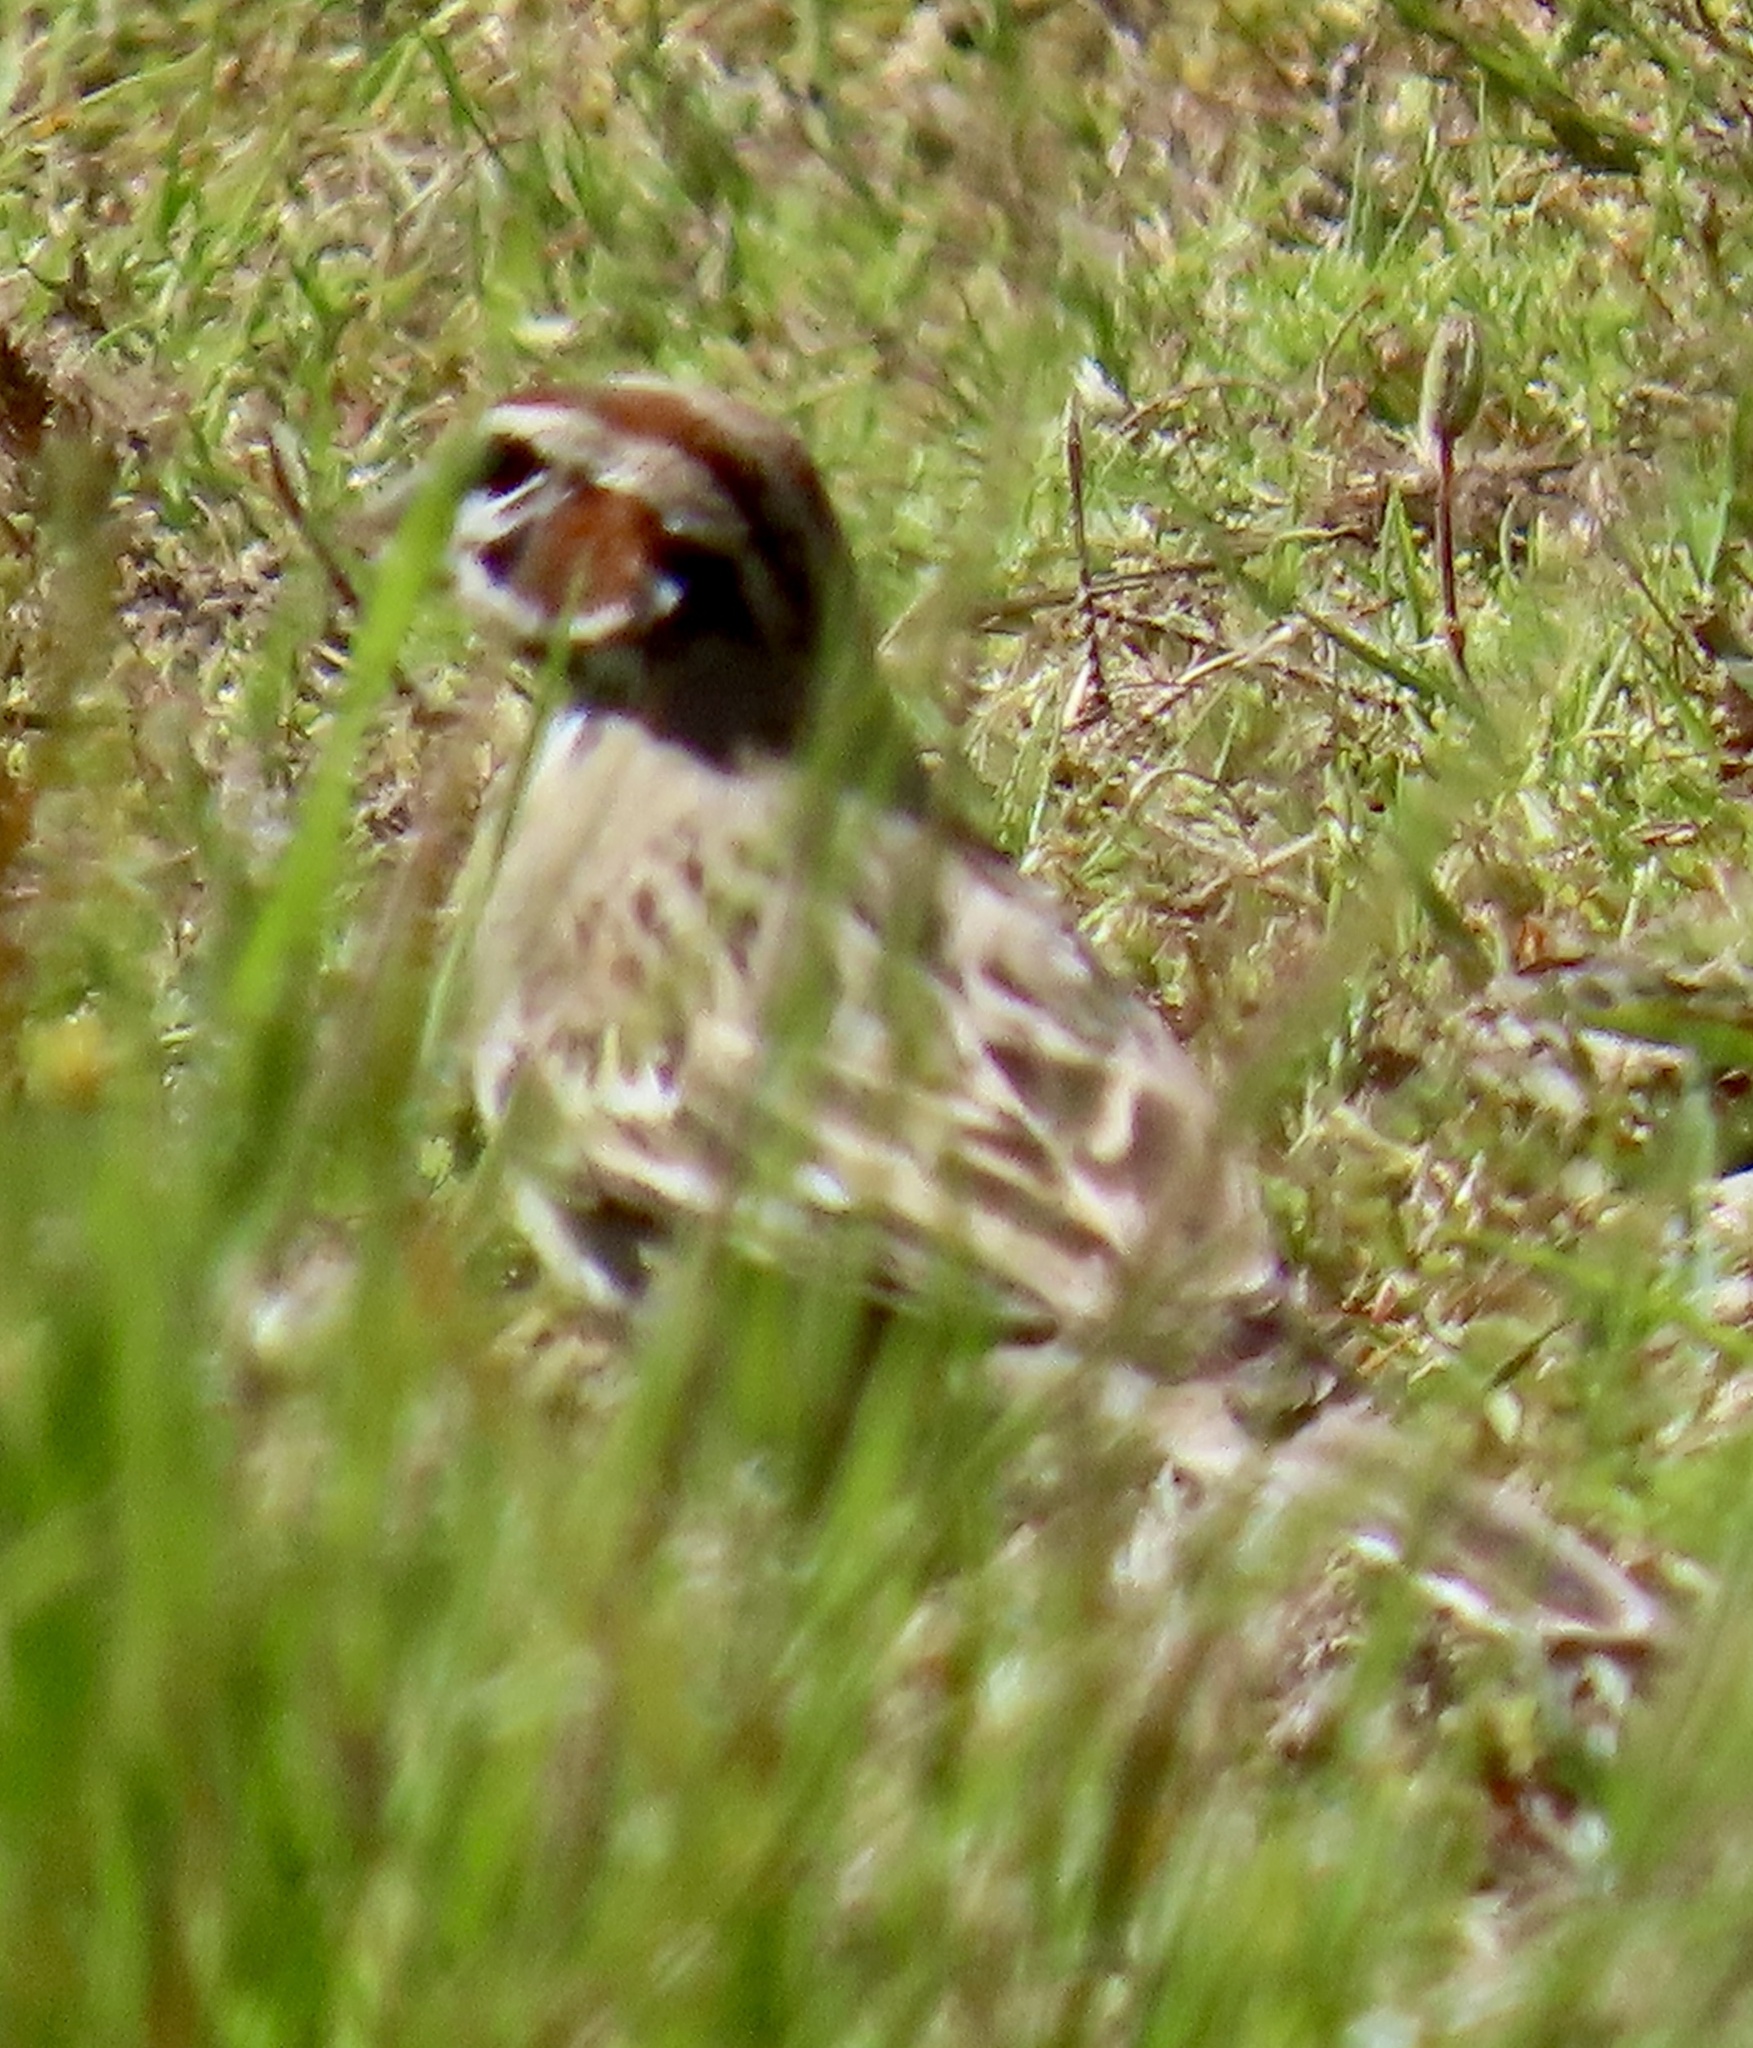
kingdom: Animalia
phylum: Chordata
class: Aves
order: Passeriformes
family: Passerellidae
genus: Chondestes
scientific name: Chondestes grammacus
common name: Lark sparrow
